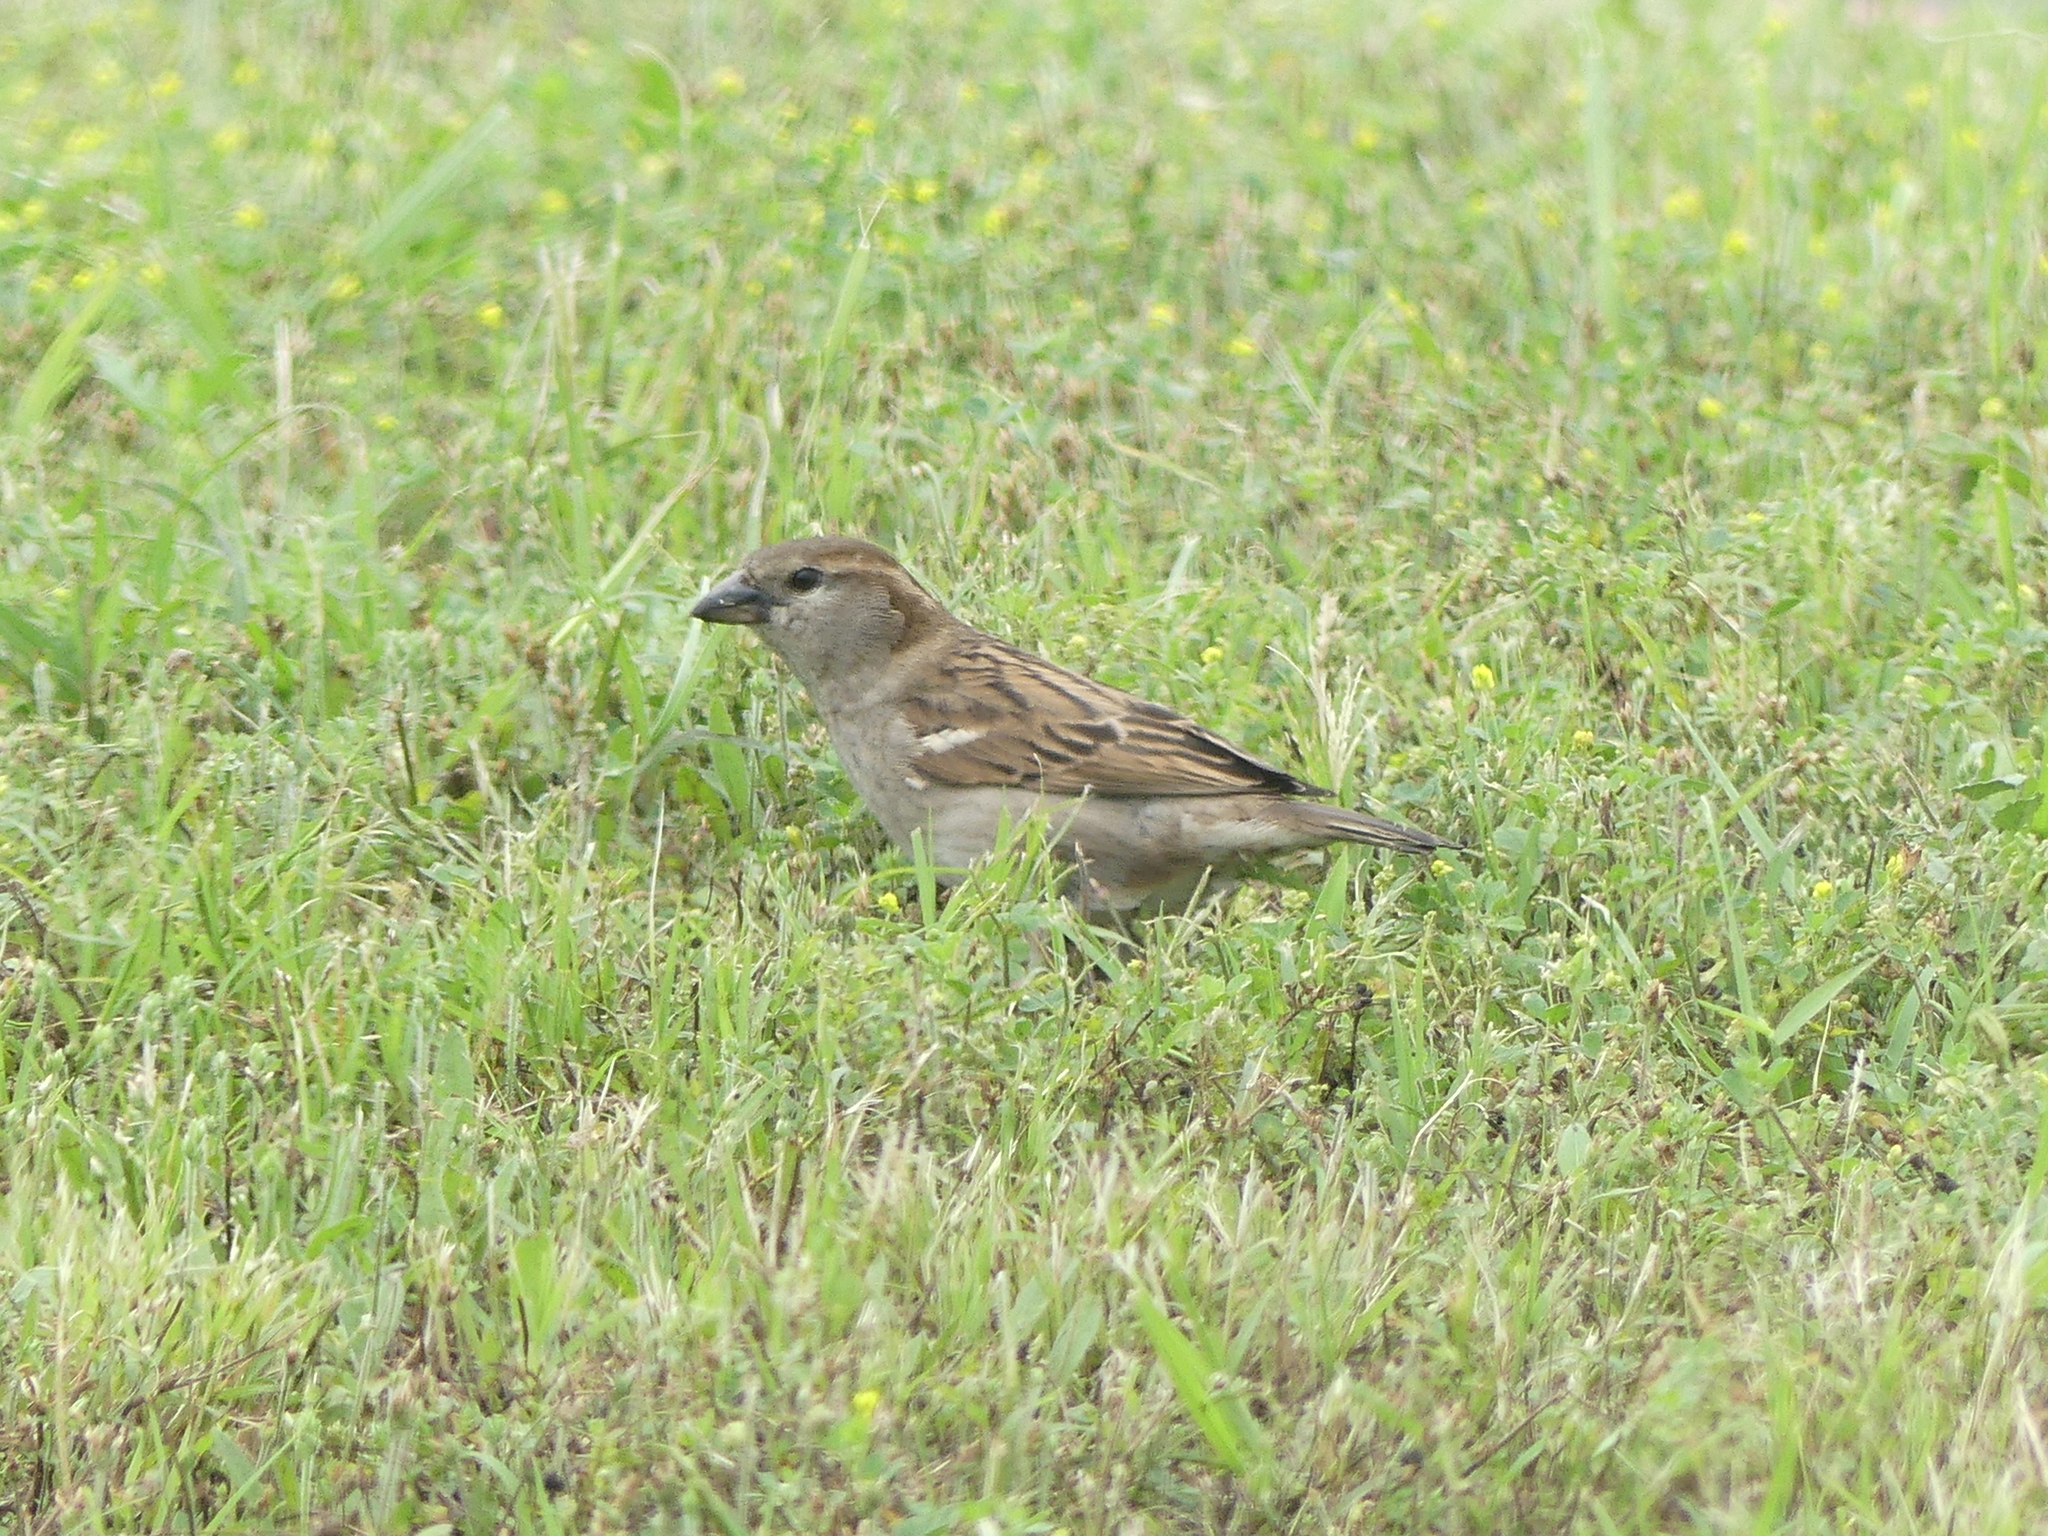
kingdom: Animalia
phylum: Chordata
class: Aves
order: Passeriformes
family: Passeridae
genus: Passer
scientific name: Passer domesticus
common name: House sparrow
